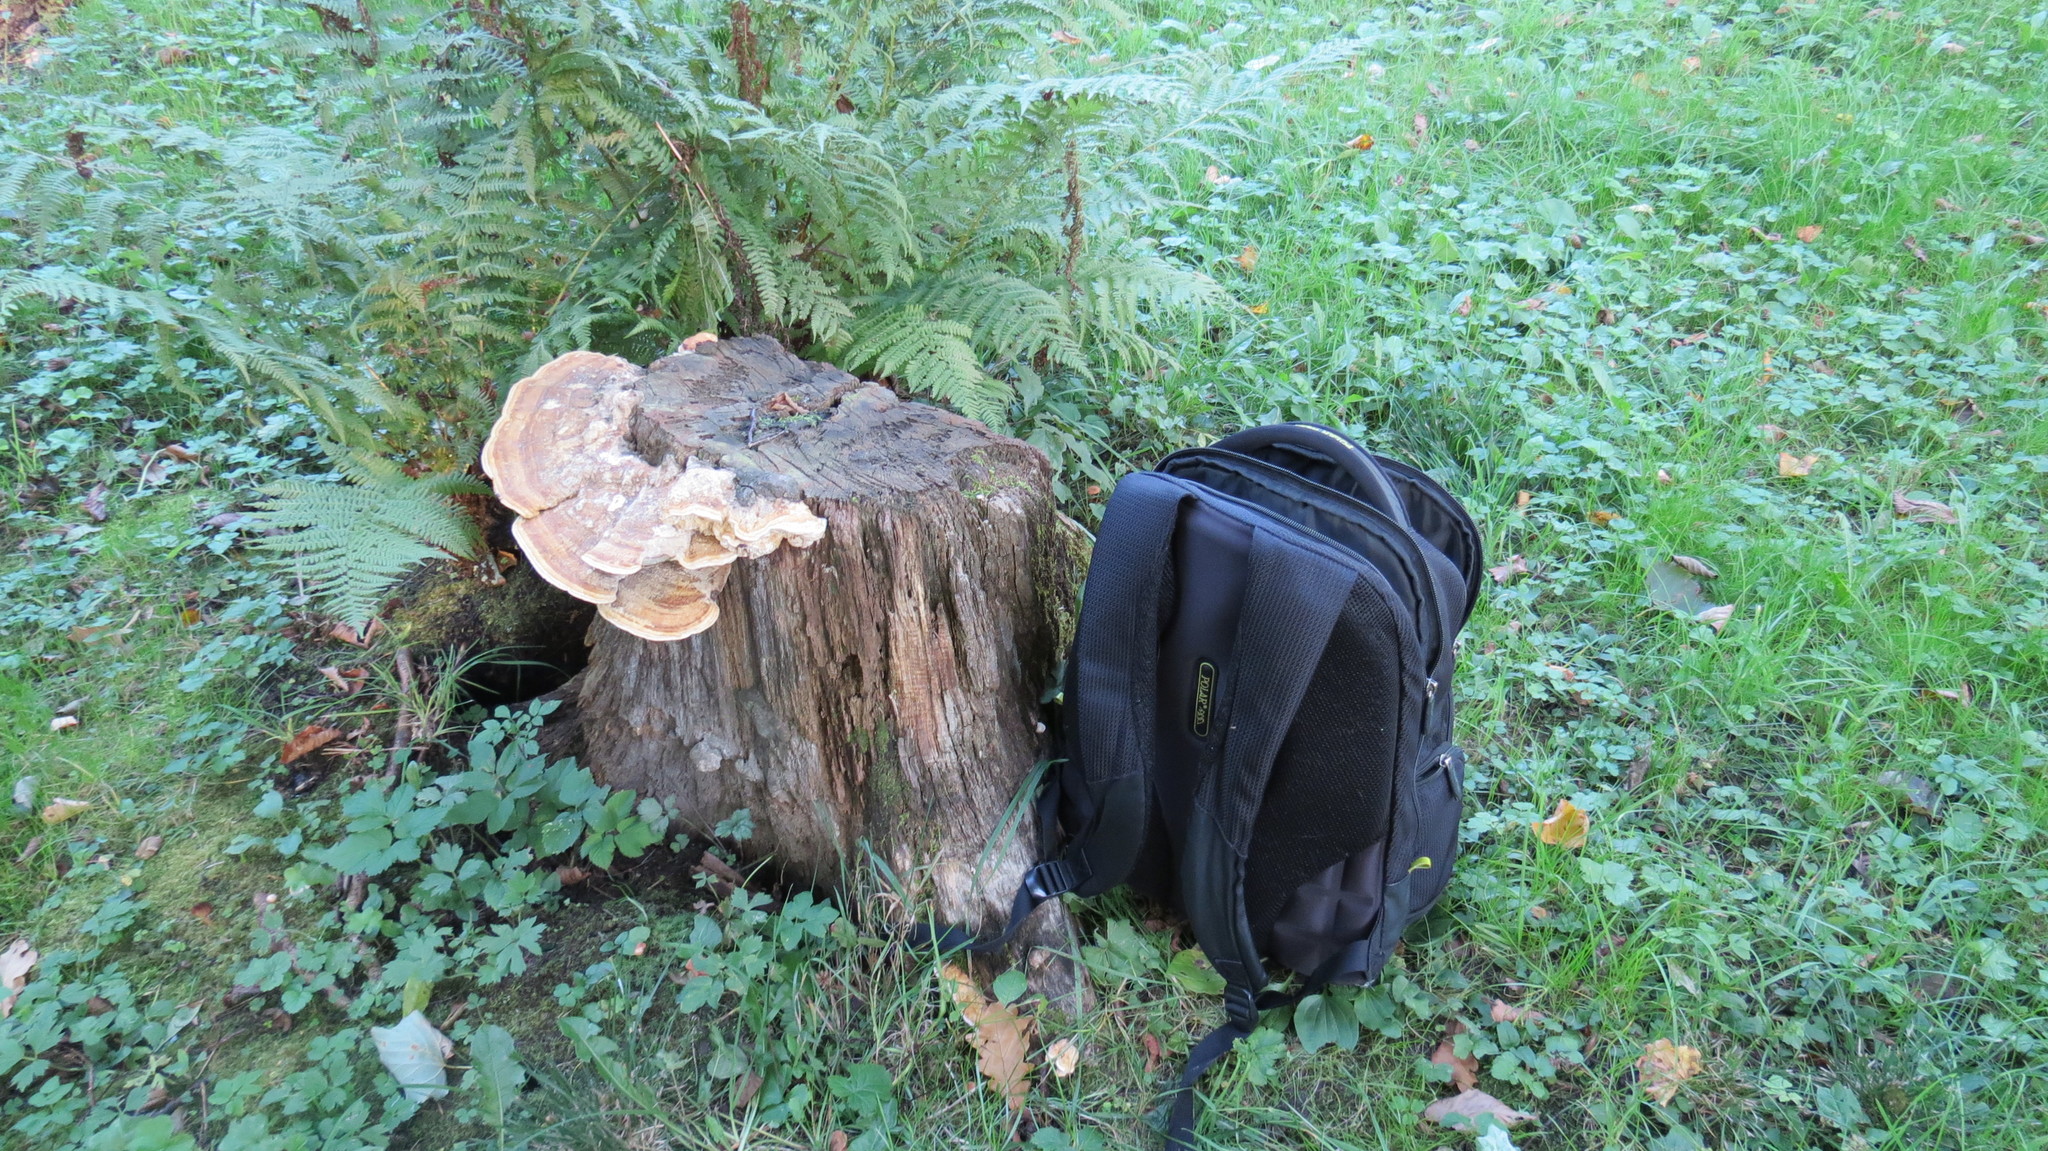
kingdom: Fungi
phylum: Basidiomycota
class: Agaricomycetes
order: Polyporales
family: Fomitopsidaceae
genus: Fomitopsis
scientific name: Fomitopsis
